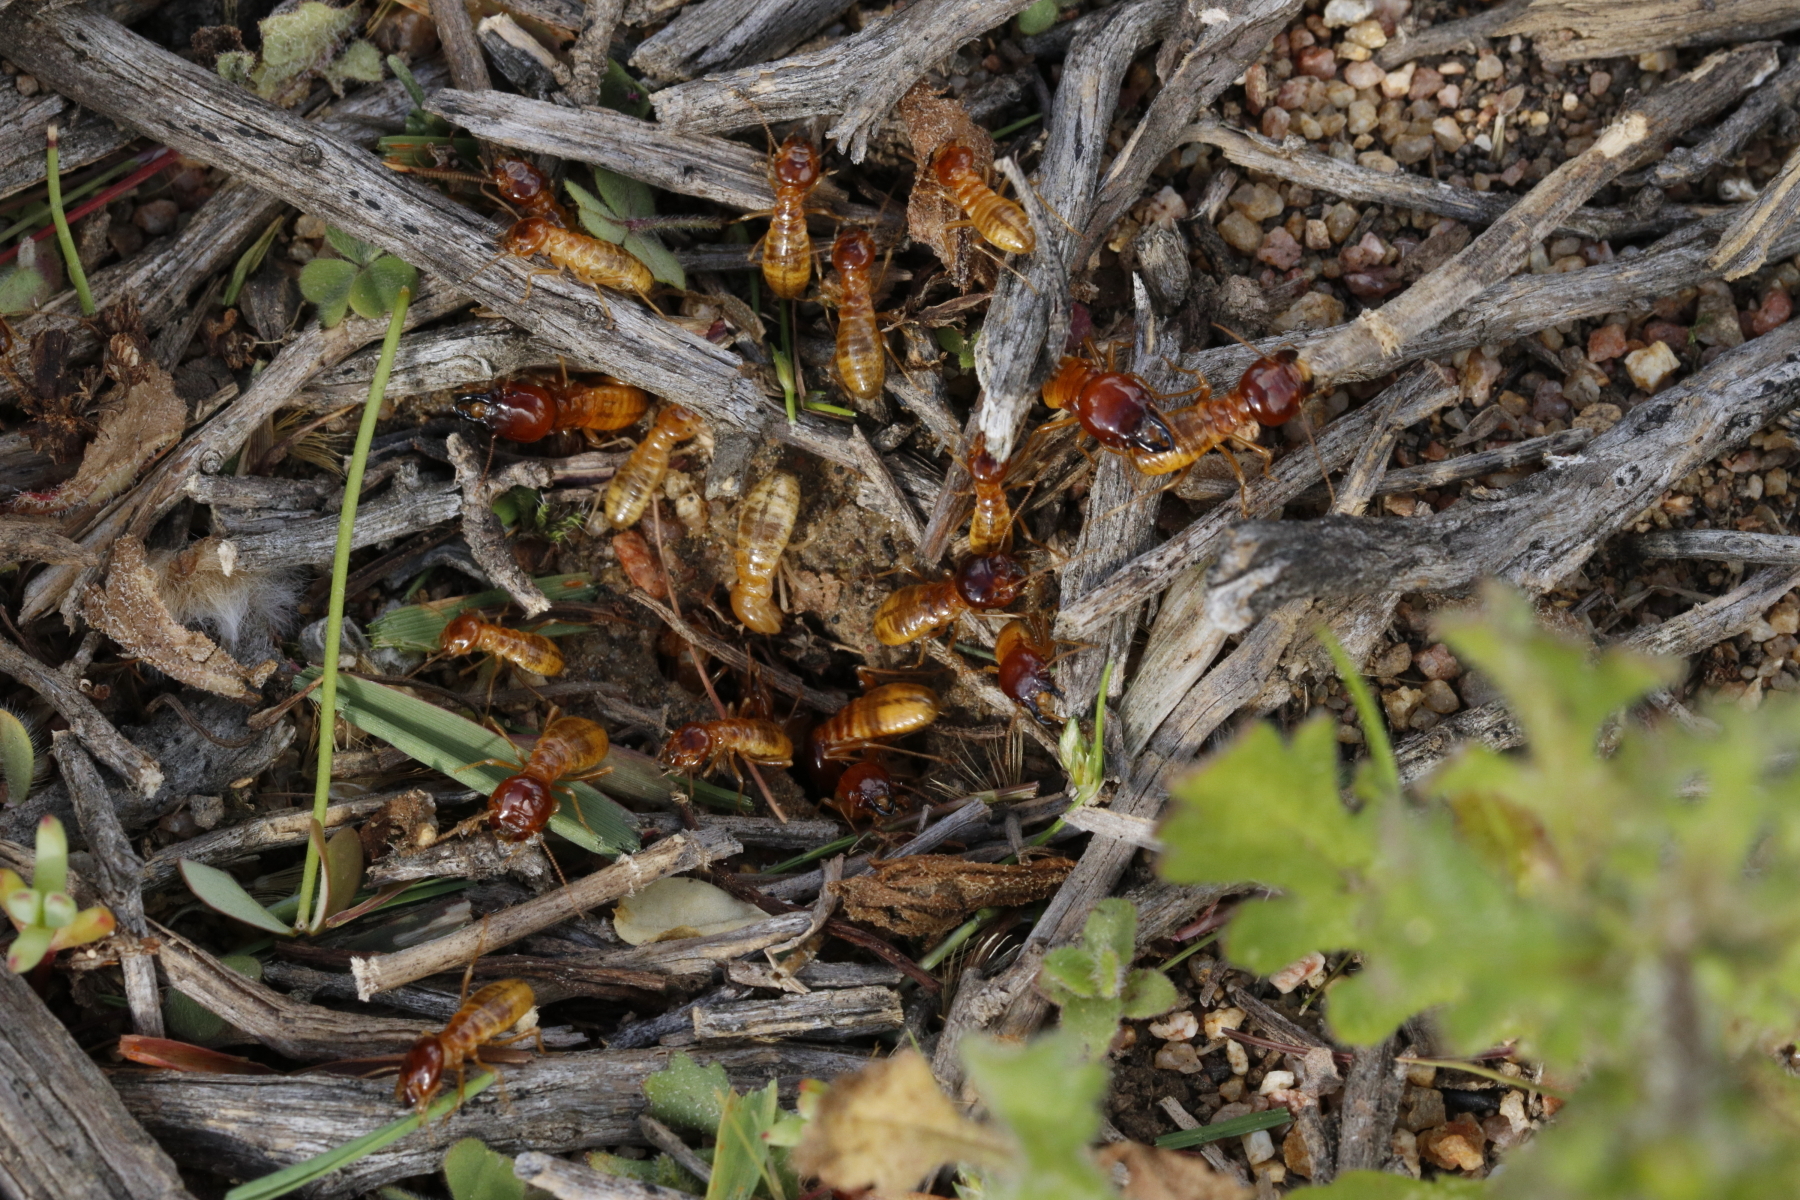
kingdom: Animalia
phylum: Arthropoda
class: Insecta
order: Blattodea
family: Hodotermitidae
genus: Microhodotermes
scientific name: Microhodotermes viator
